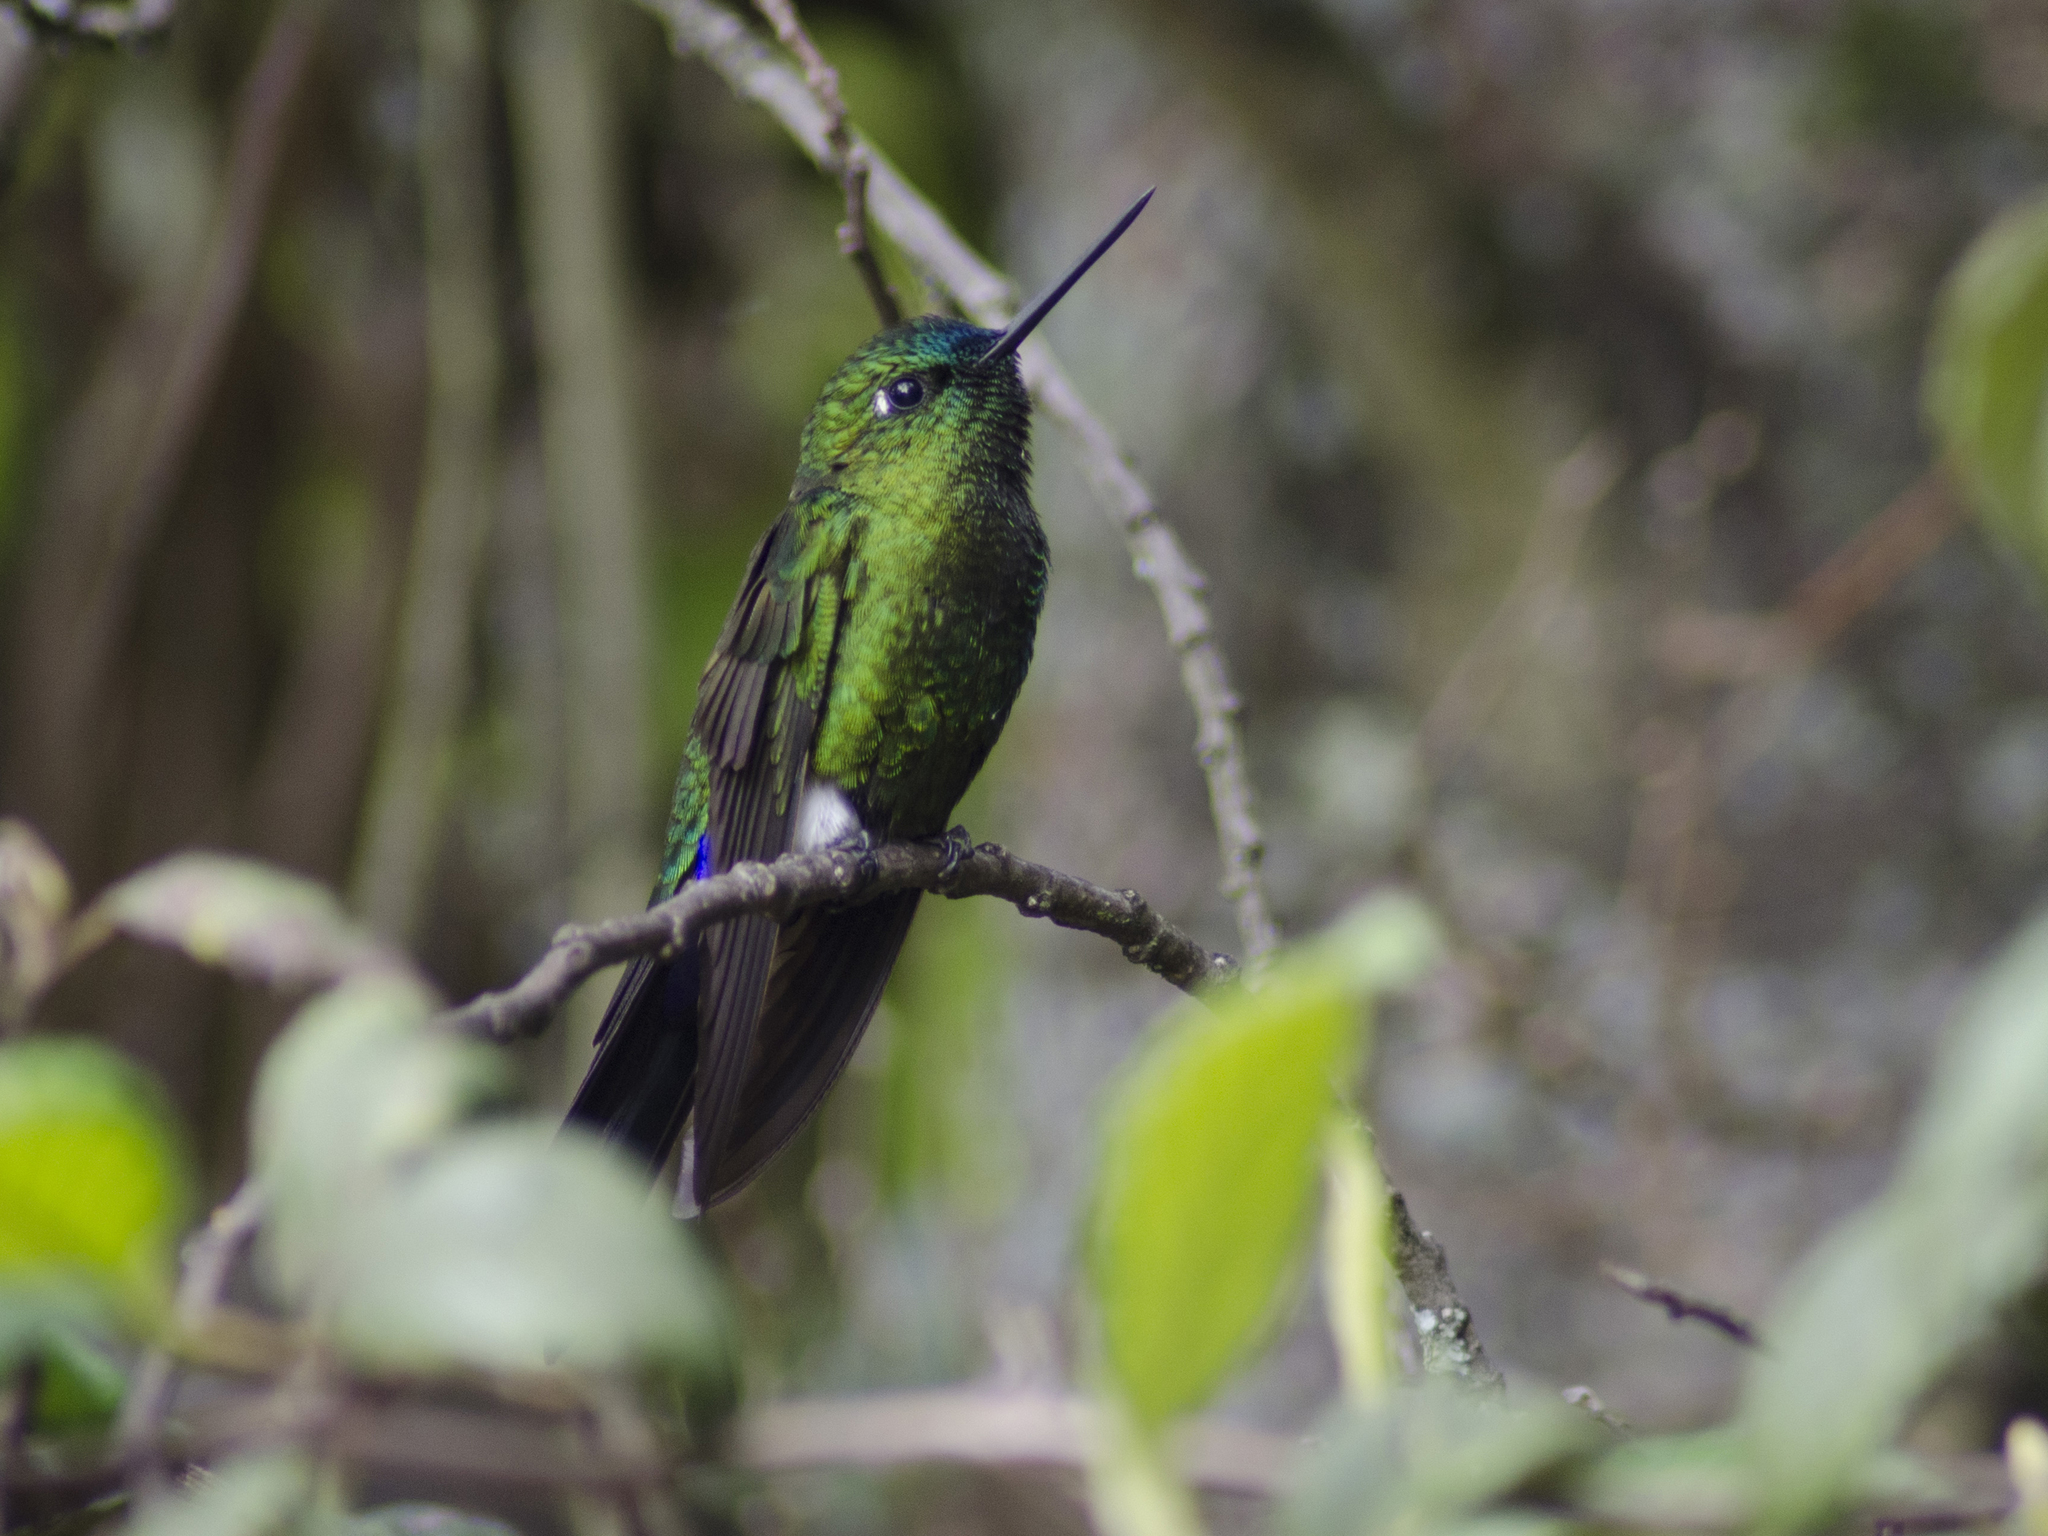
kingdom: Animalia
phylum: Chordata
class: Aves
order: Apodiformes
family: Trochilidae
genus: Eriocnemis
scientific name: Eriocnemis luciani
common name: Sapphire-vented puffleg
